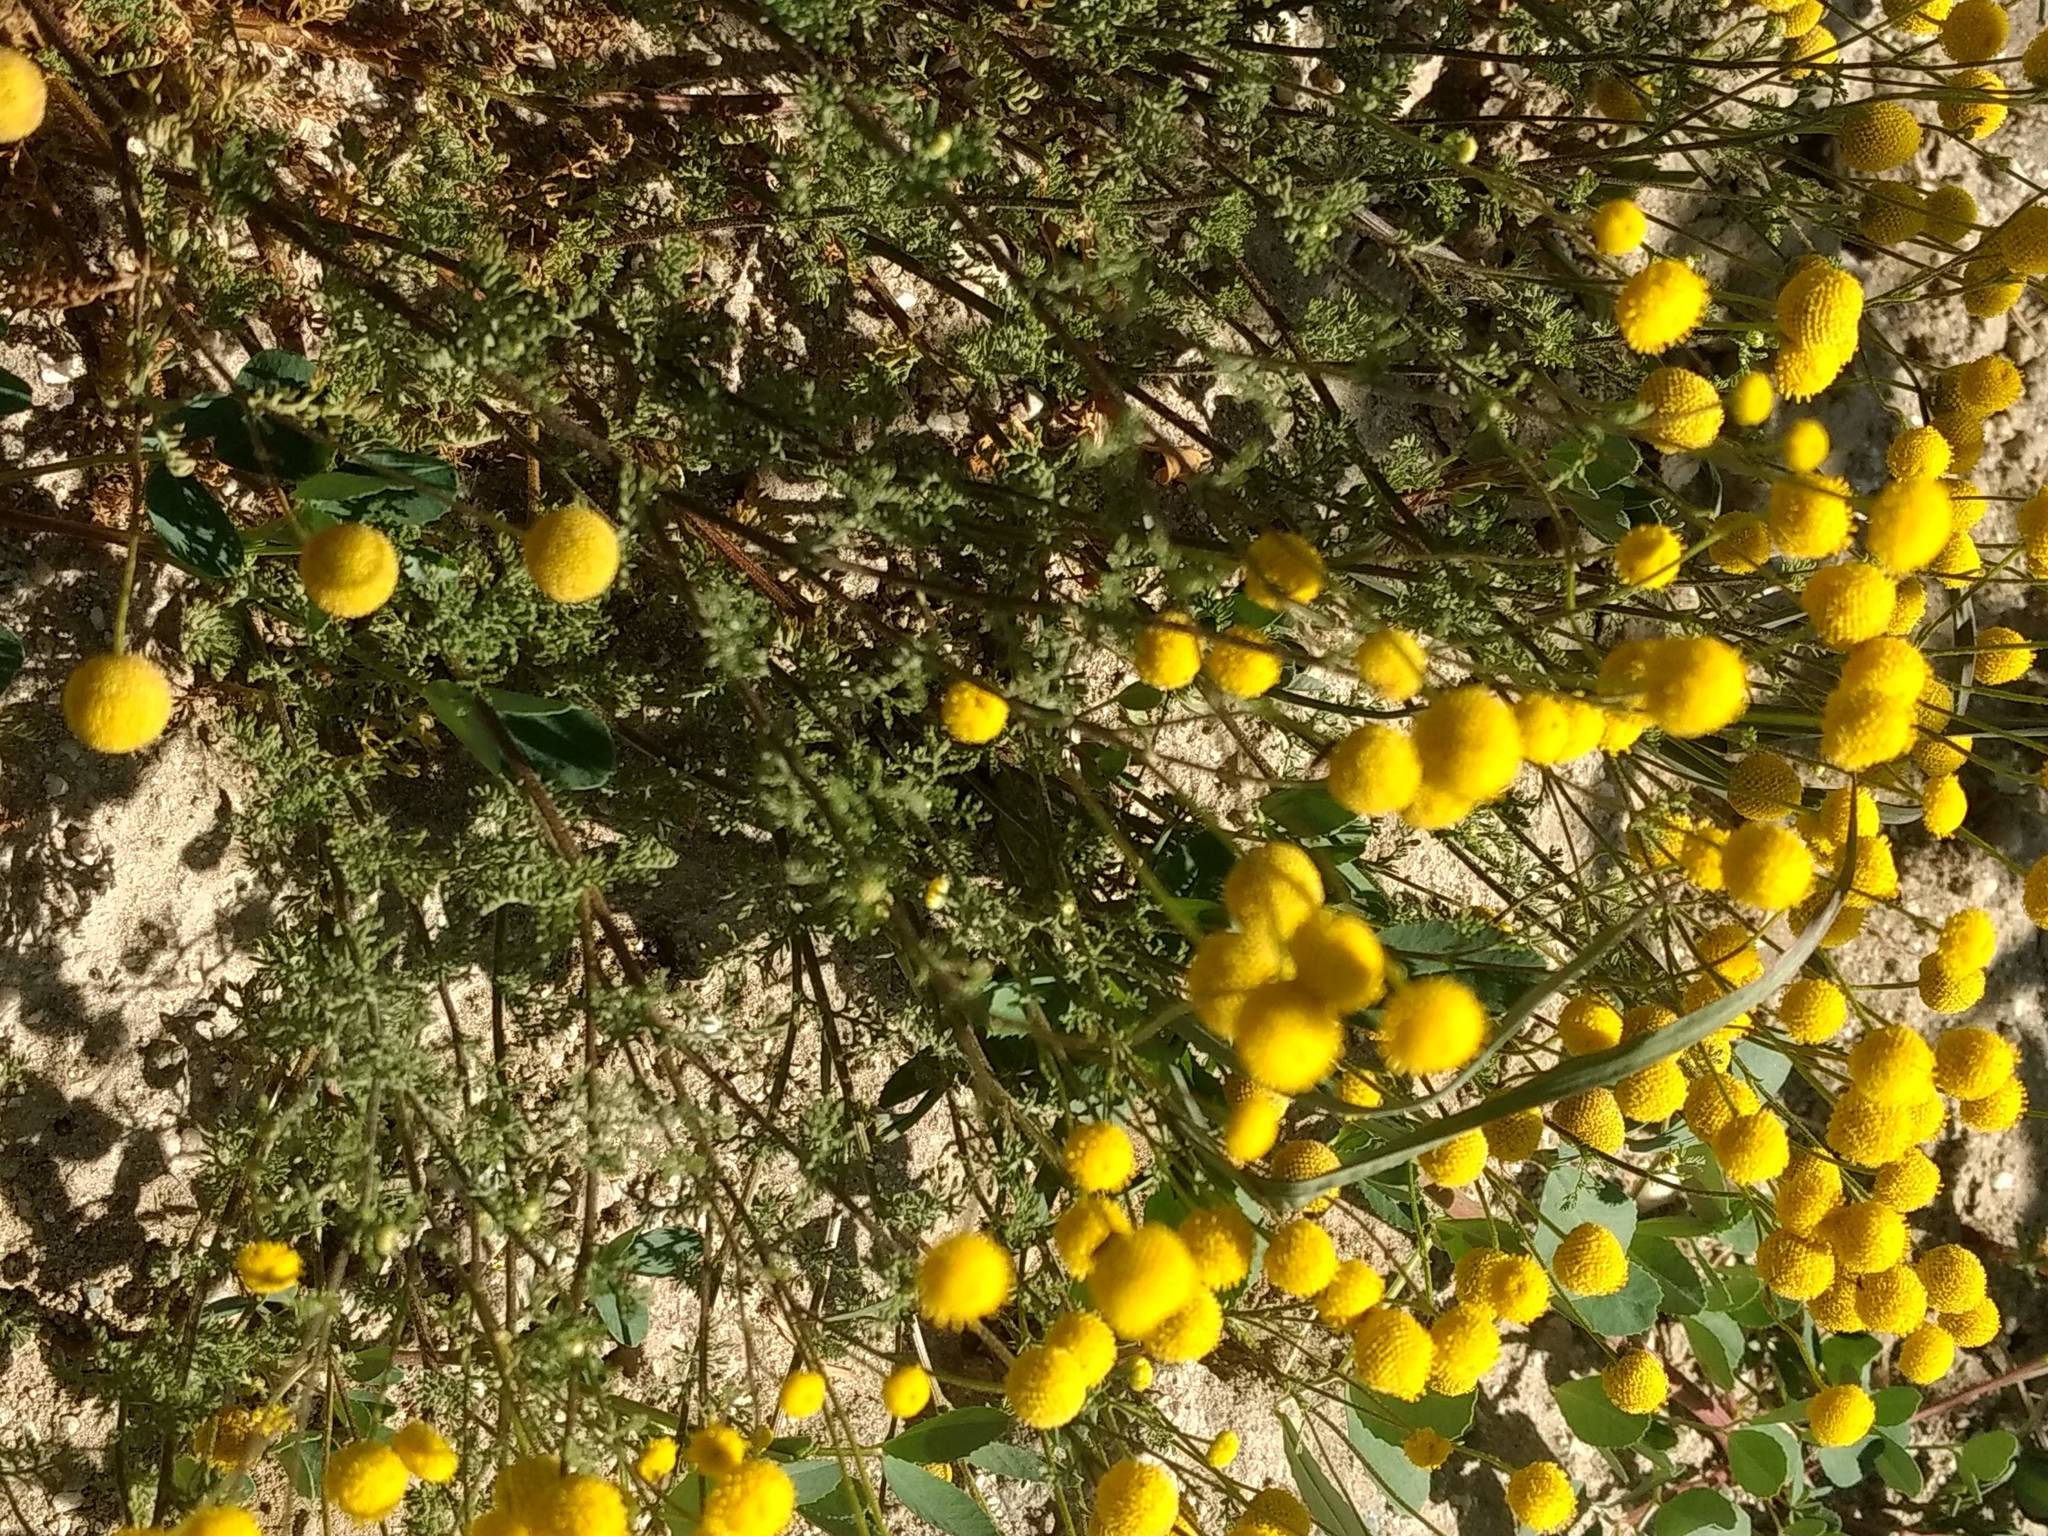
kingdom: Plantae
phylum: Tracheophyta
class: Magnoliopsida
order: Asterales
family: Asteraceae
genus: Oncosiphon
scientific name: Oncosiphon pilulifer
